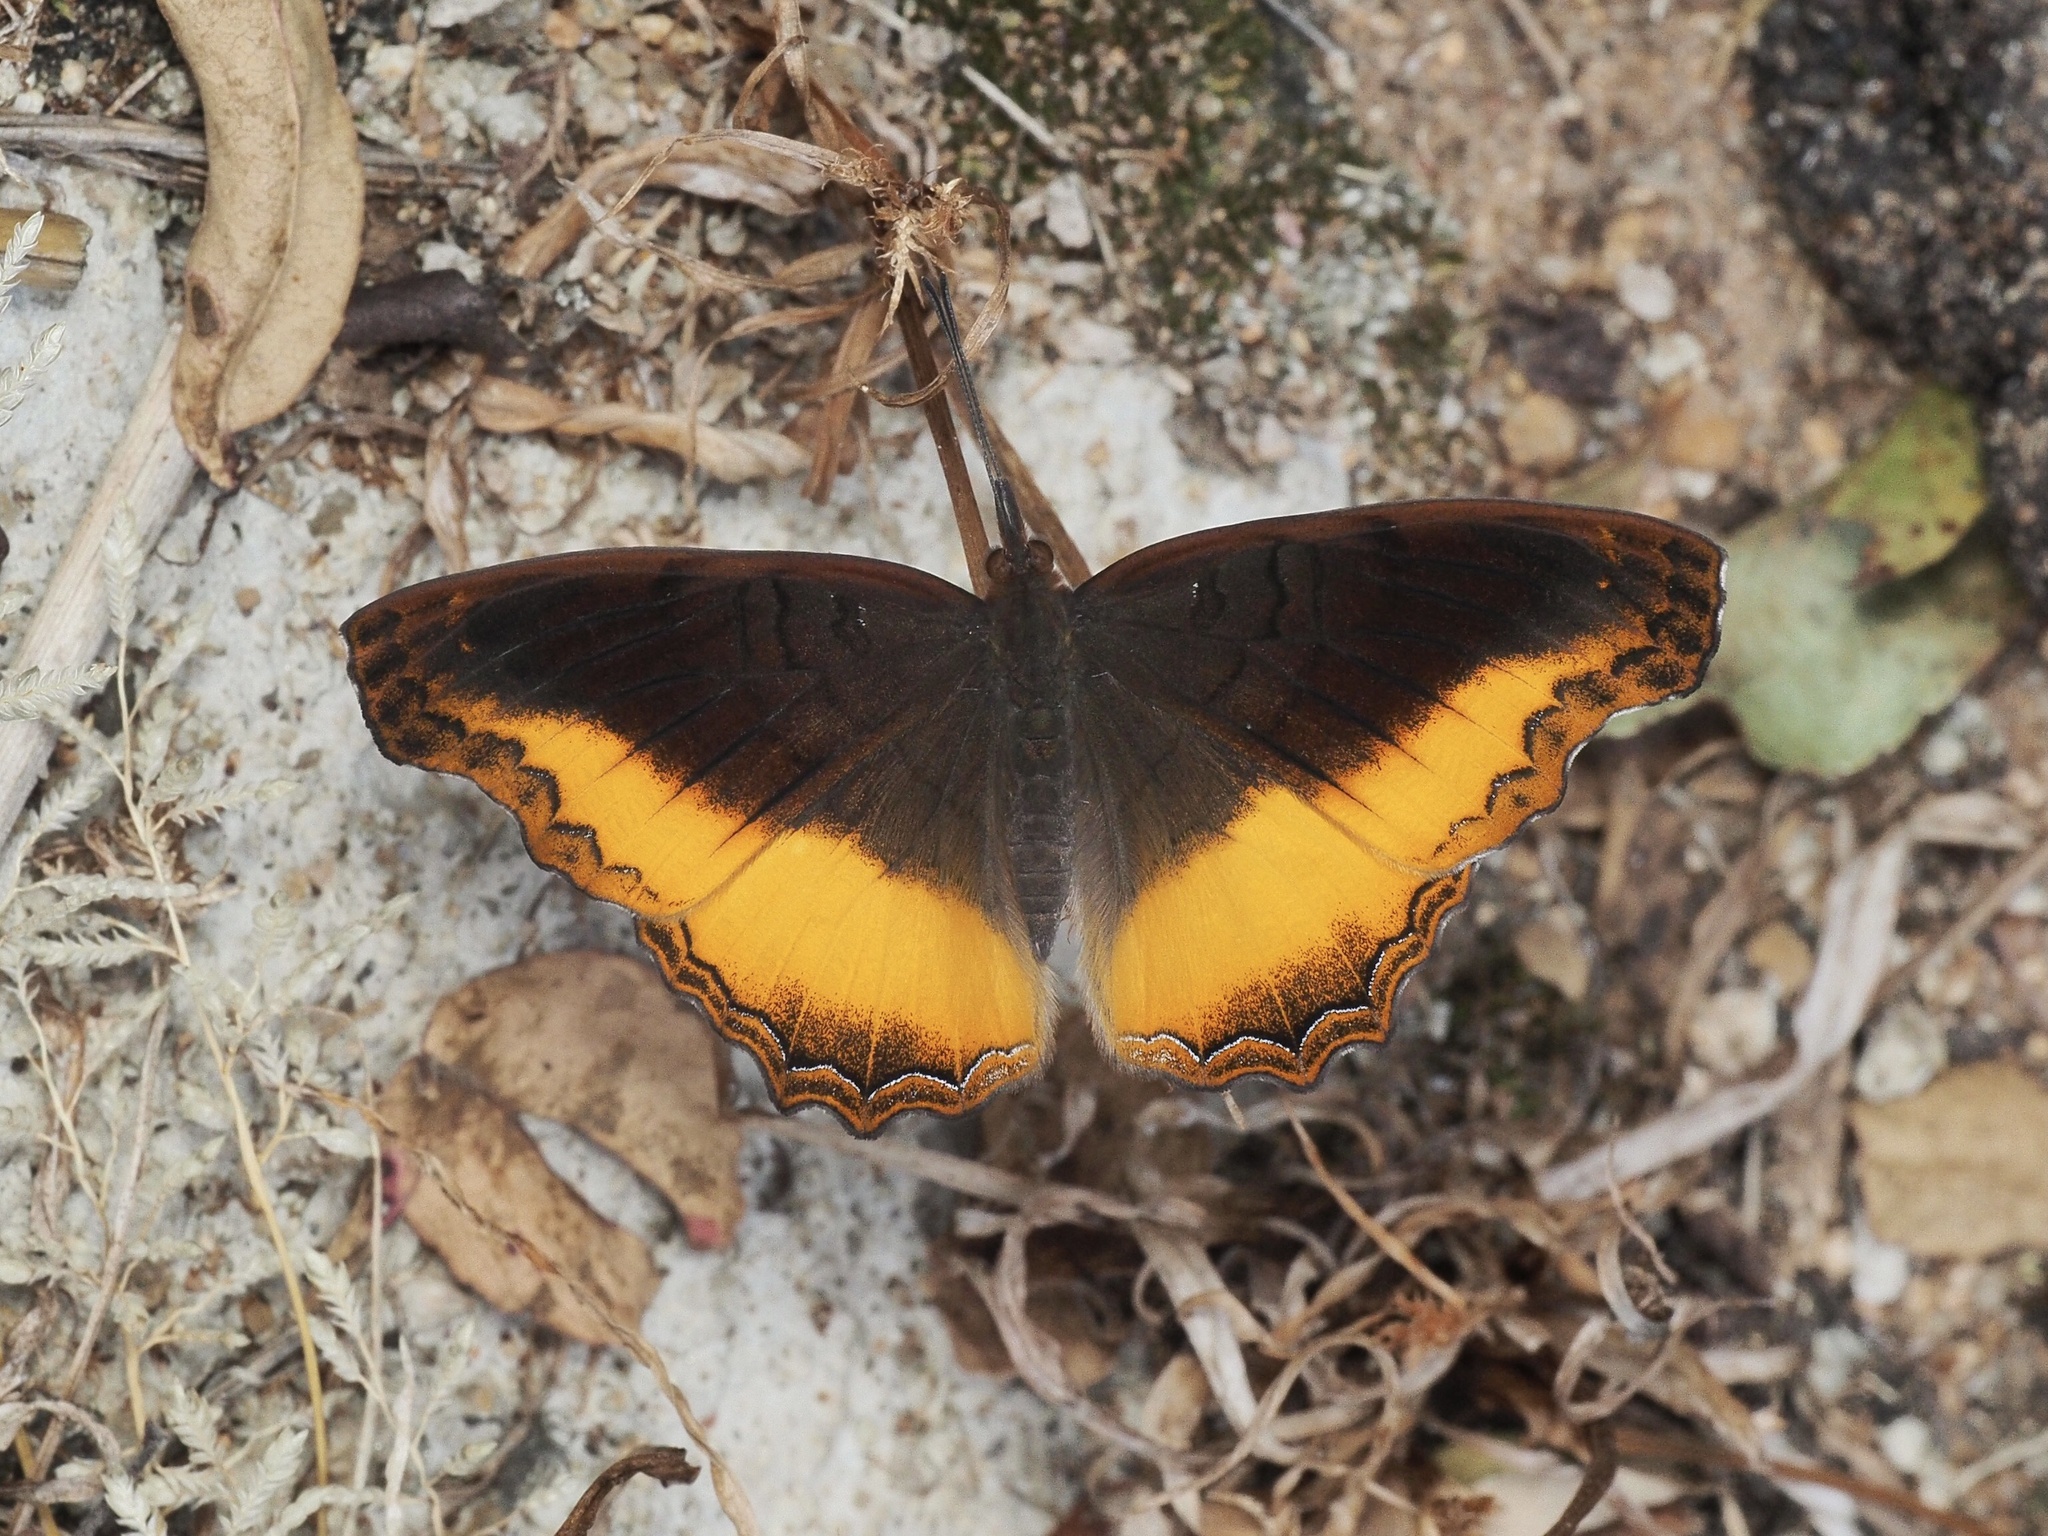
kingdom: Animalia
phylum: Arthropoda
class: Insecta
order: Lepidoptera
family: Nymphalidae
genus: Eurytela
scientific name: Eurytela dryope
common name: Golden piper
